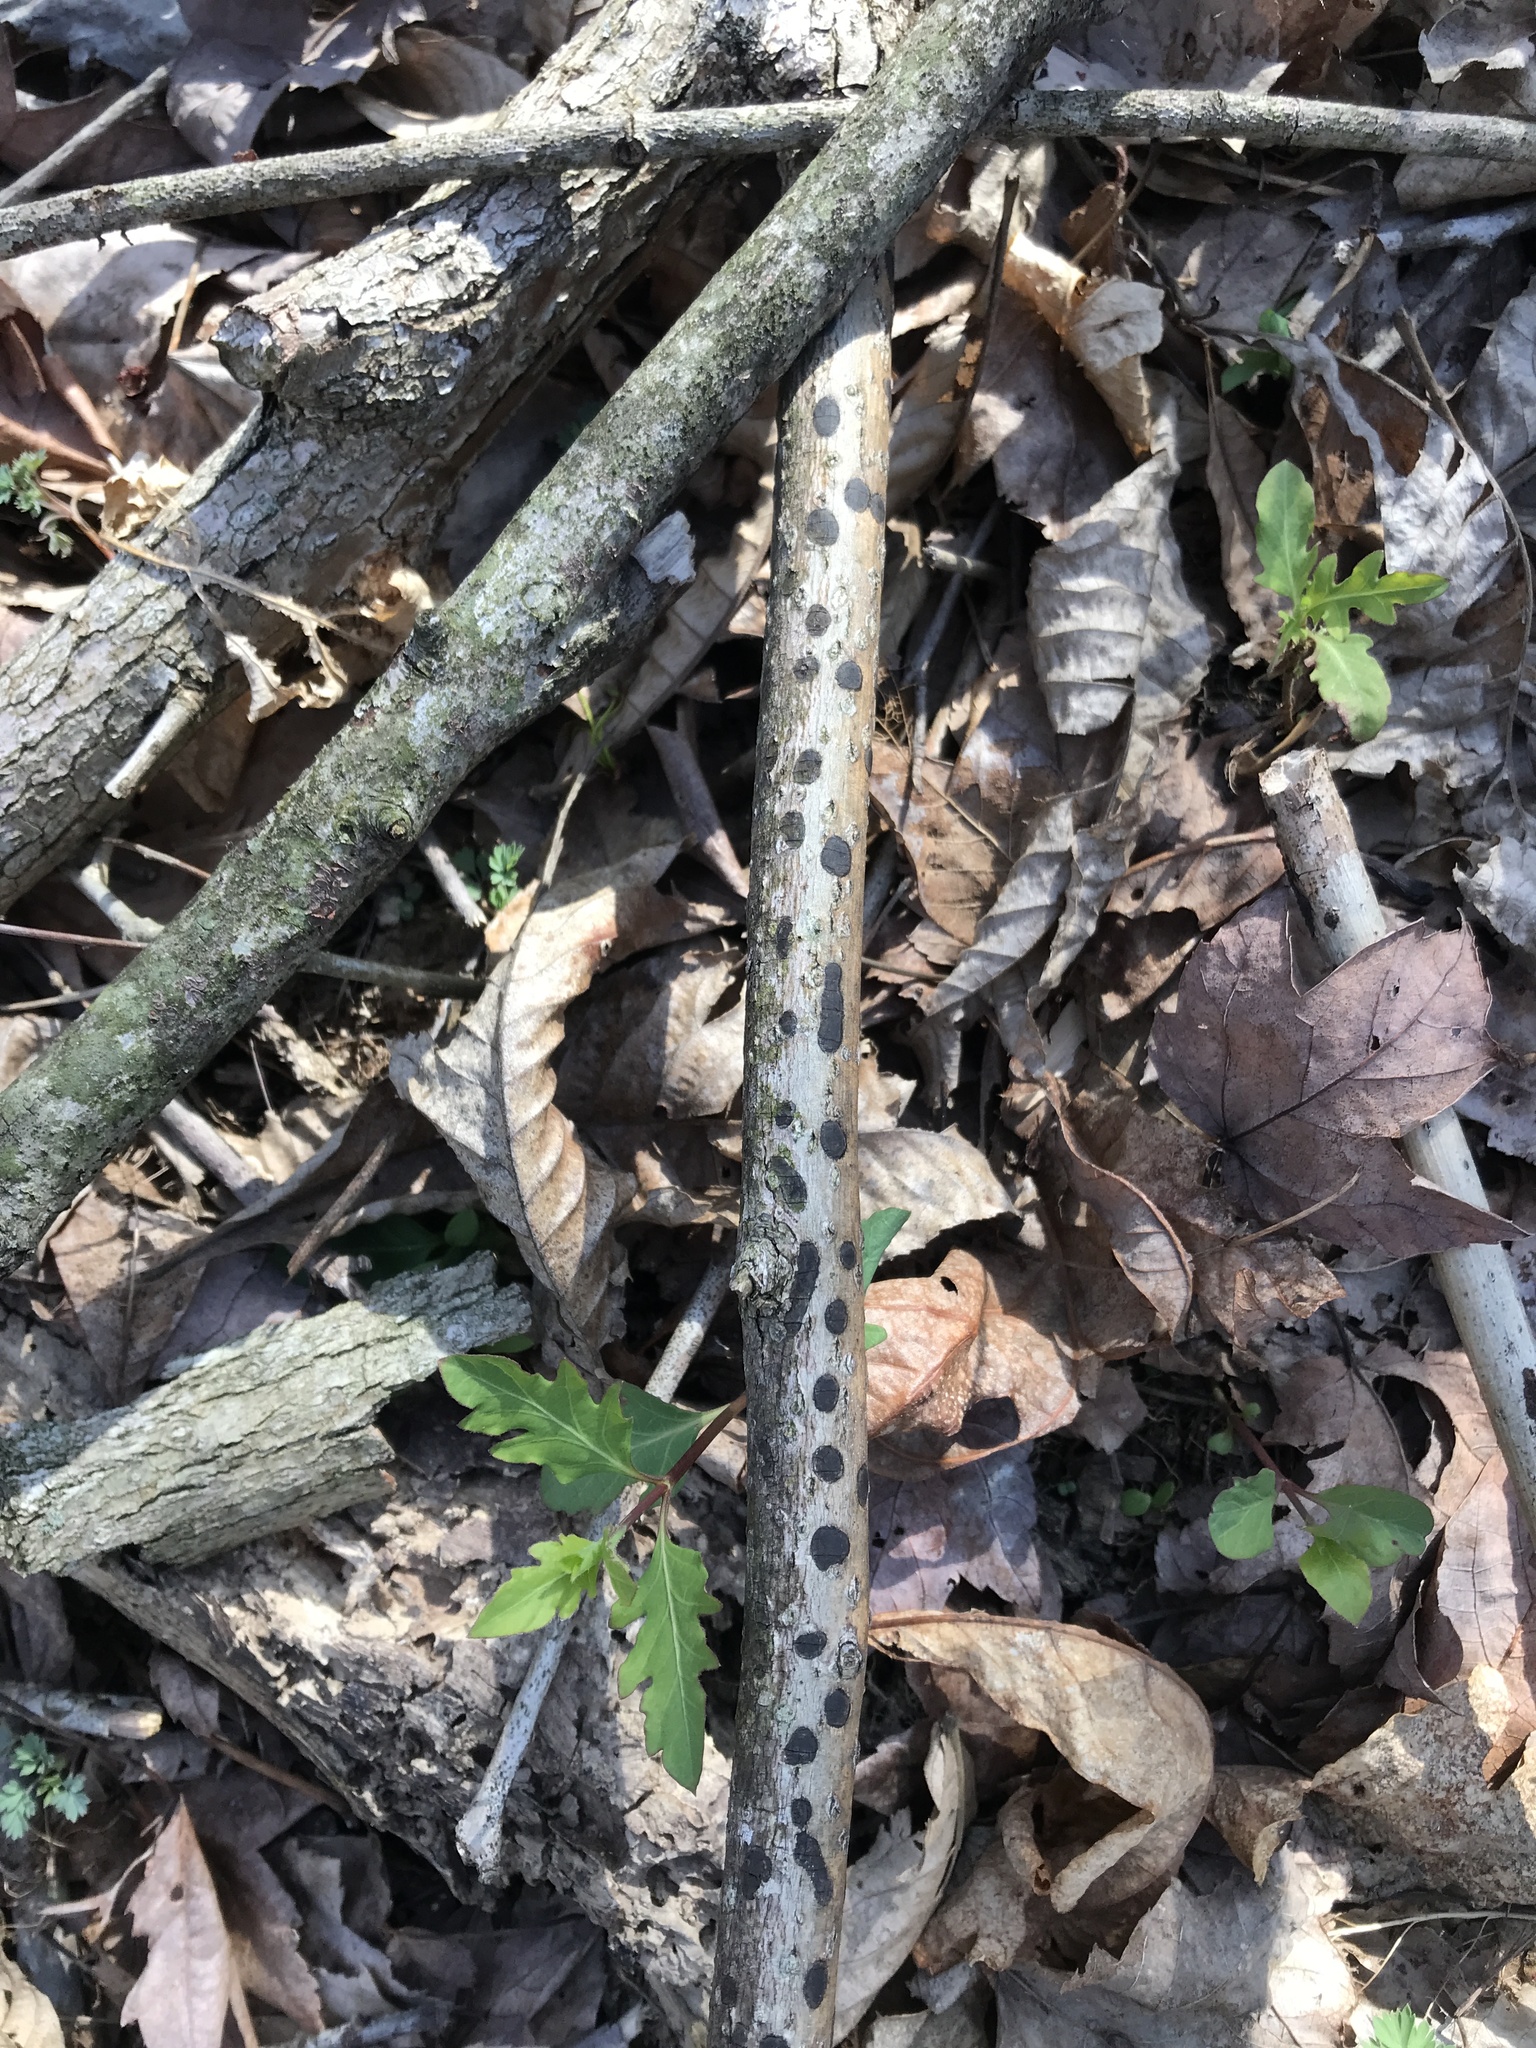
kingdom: Fungi
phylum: Ascomycota
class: Sordariomycetes
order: Xylariales
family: Xylariaceae
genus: Whalleya
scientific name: Whalleya microplaca
